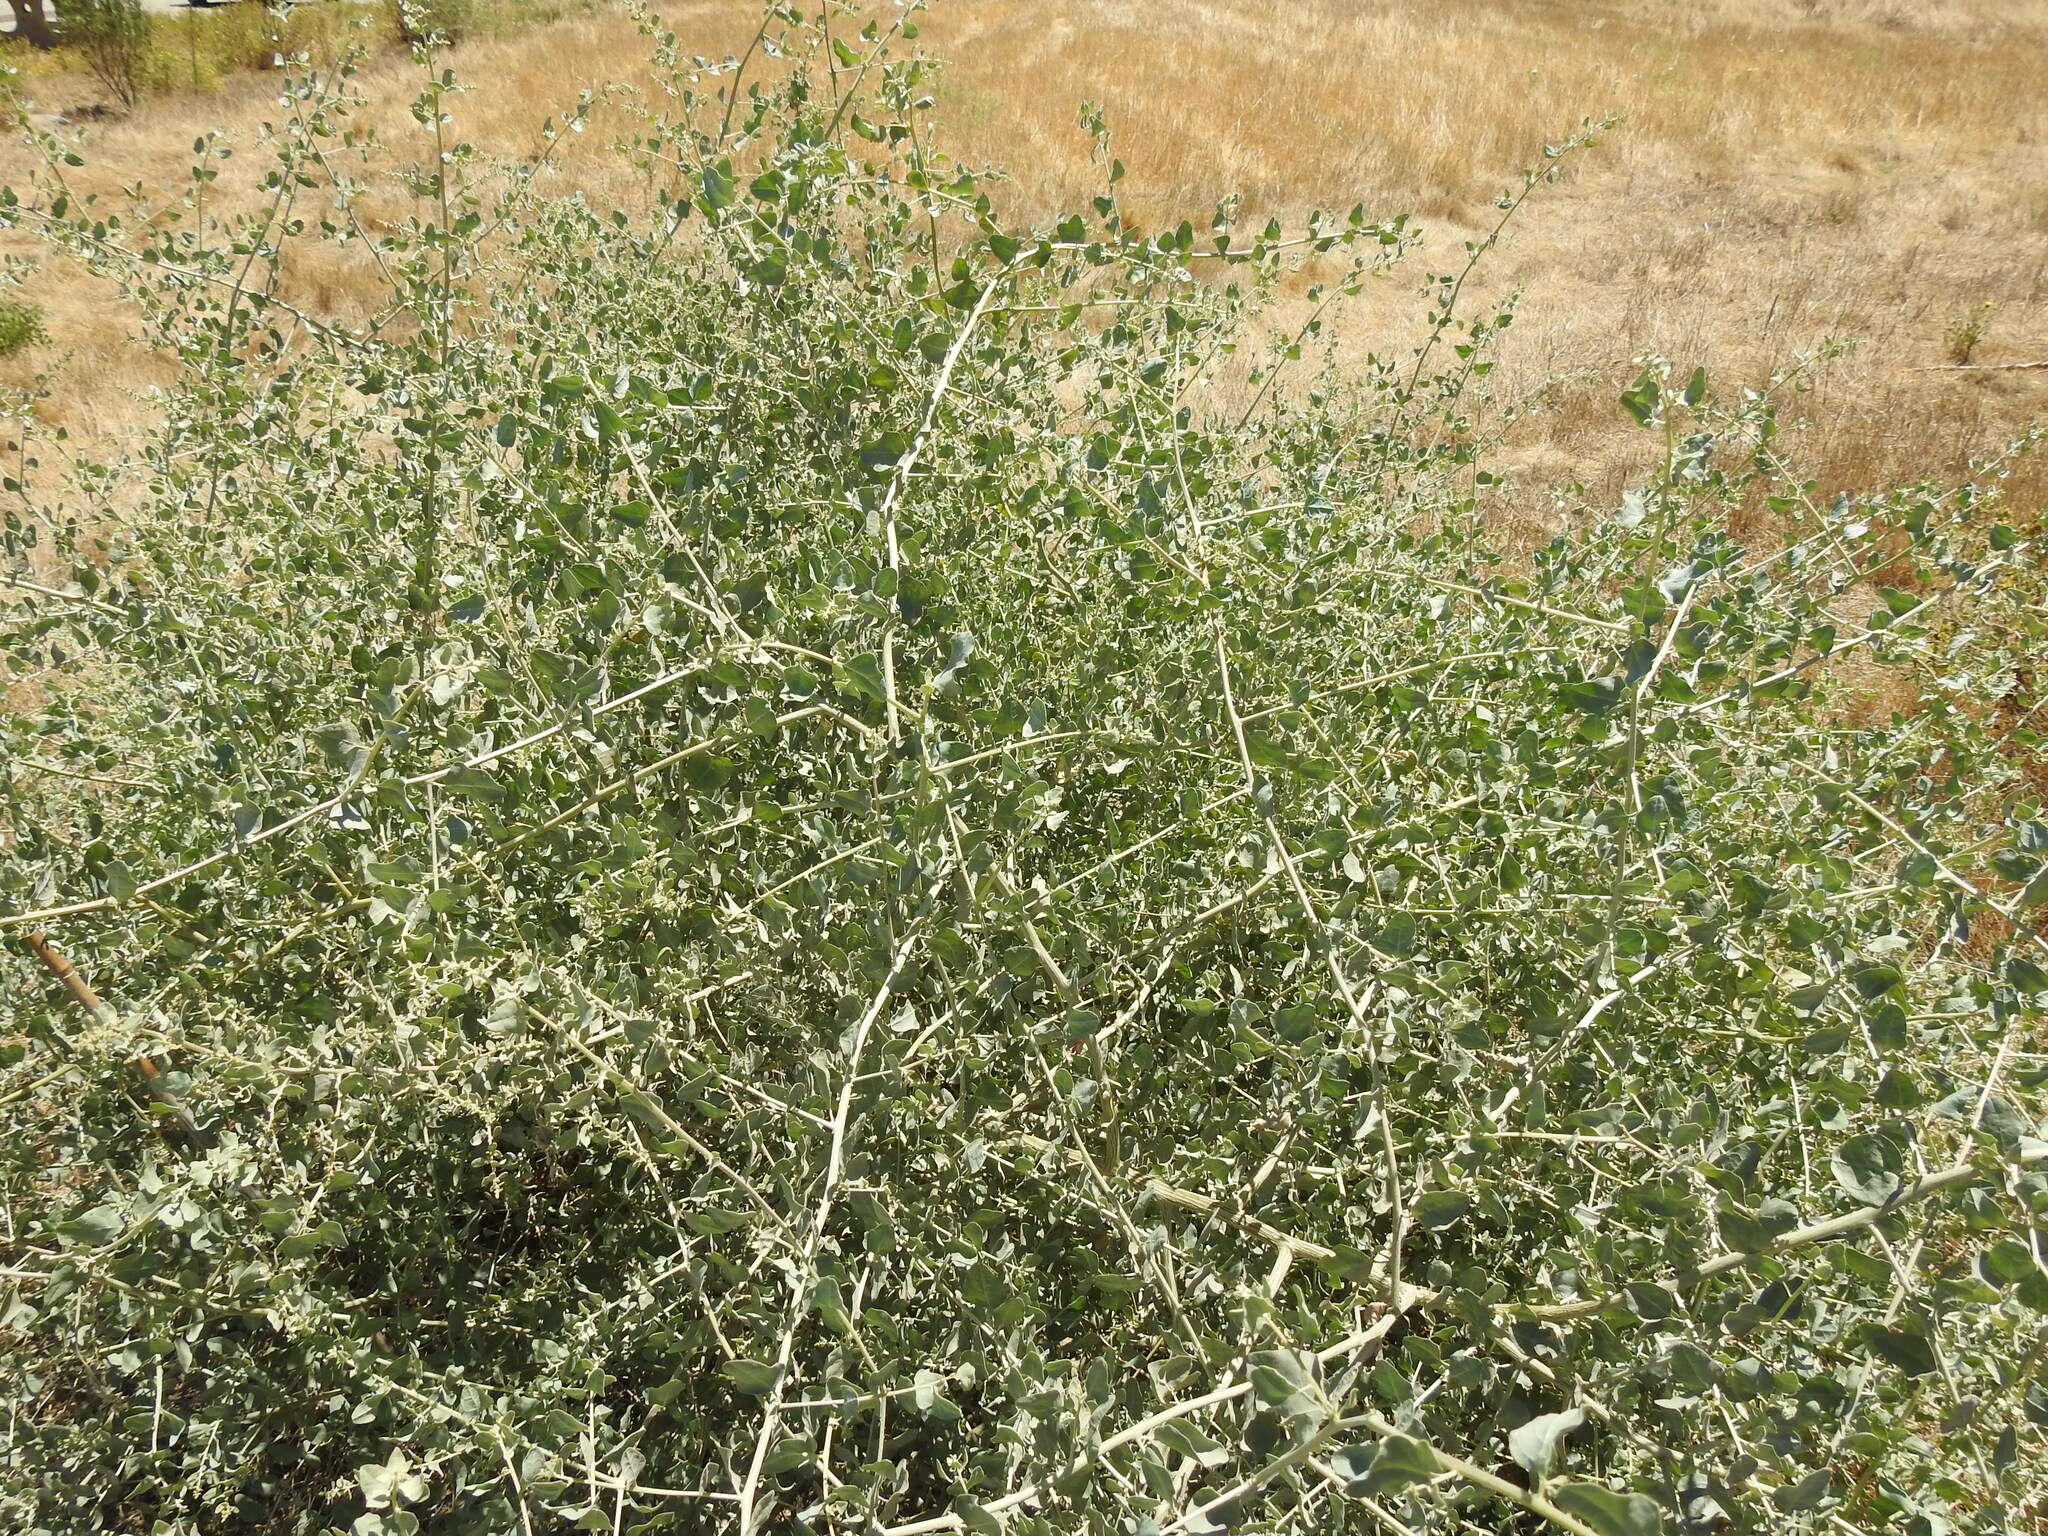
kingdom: Plantae
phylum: Tracheophyta
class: Magnoliopsida
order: Caryophyllales
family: Amaranthaceae
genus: Atriplex
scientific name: Atriplex lentiformis
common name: Big saltbush
